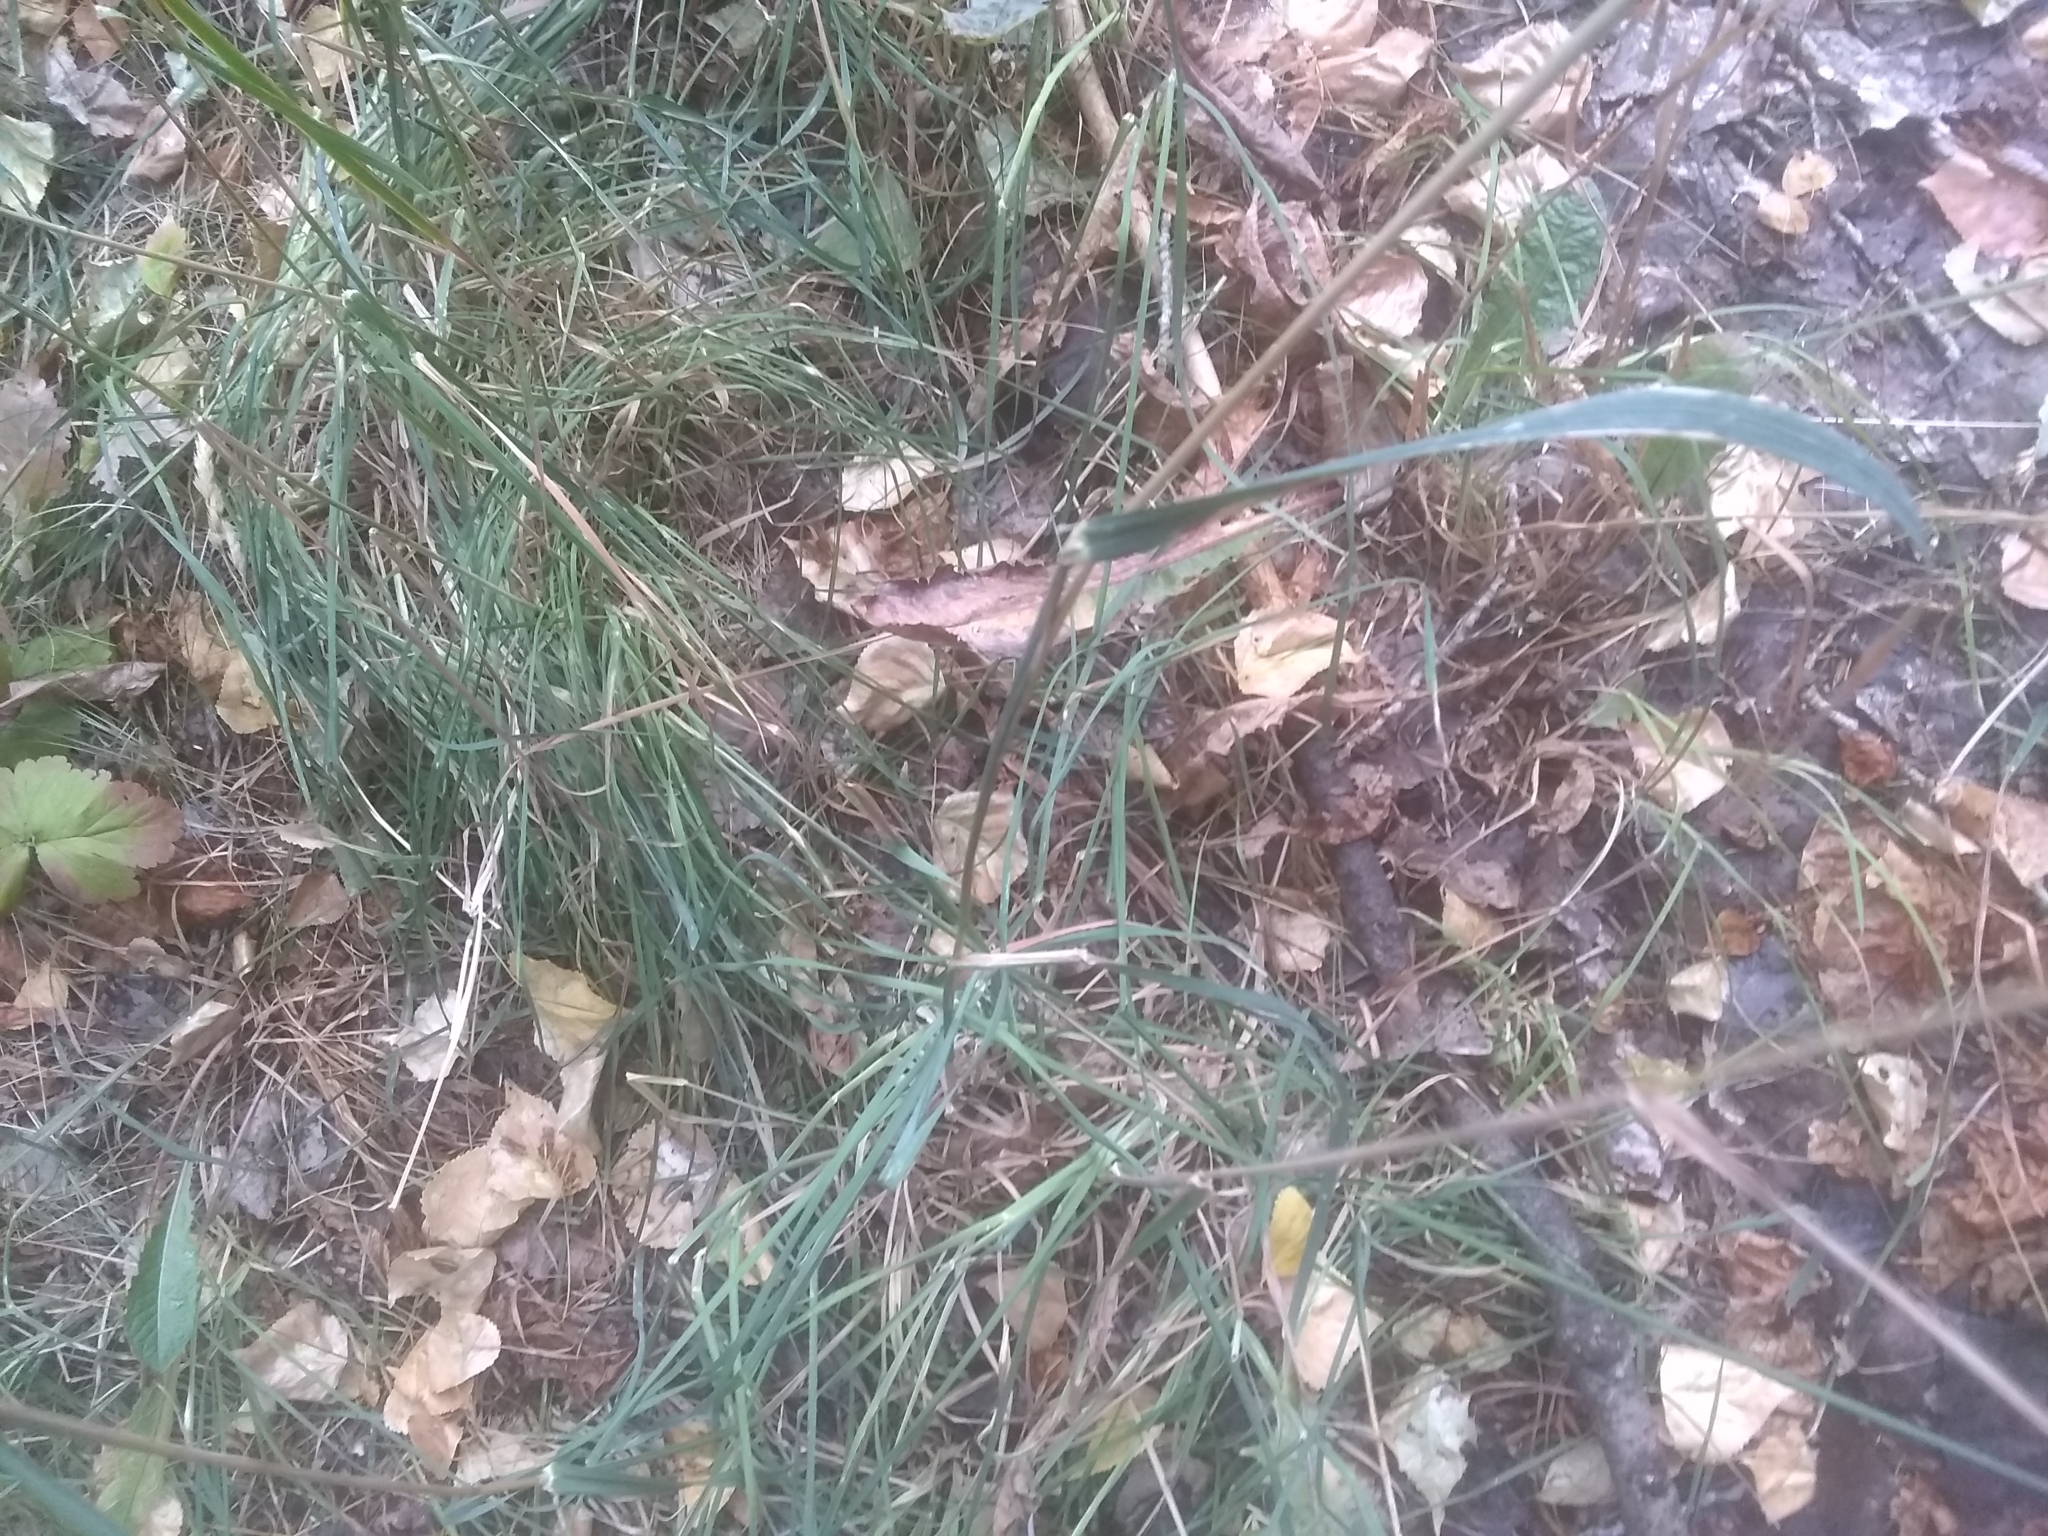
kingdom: Plantae
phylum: Tracheophyta
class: Liliopsida
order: Poales
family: Poaceae
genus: Dactylis
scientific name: Dactylis glomerata
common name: Orchardgrass
